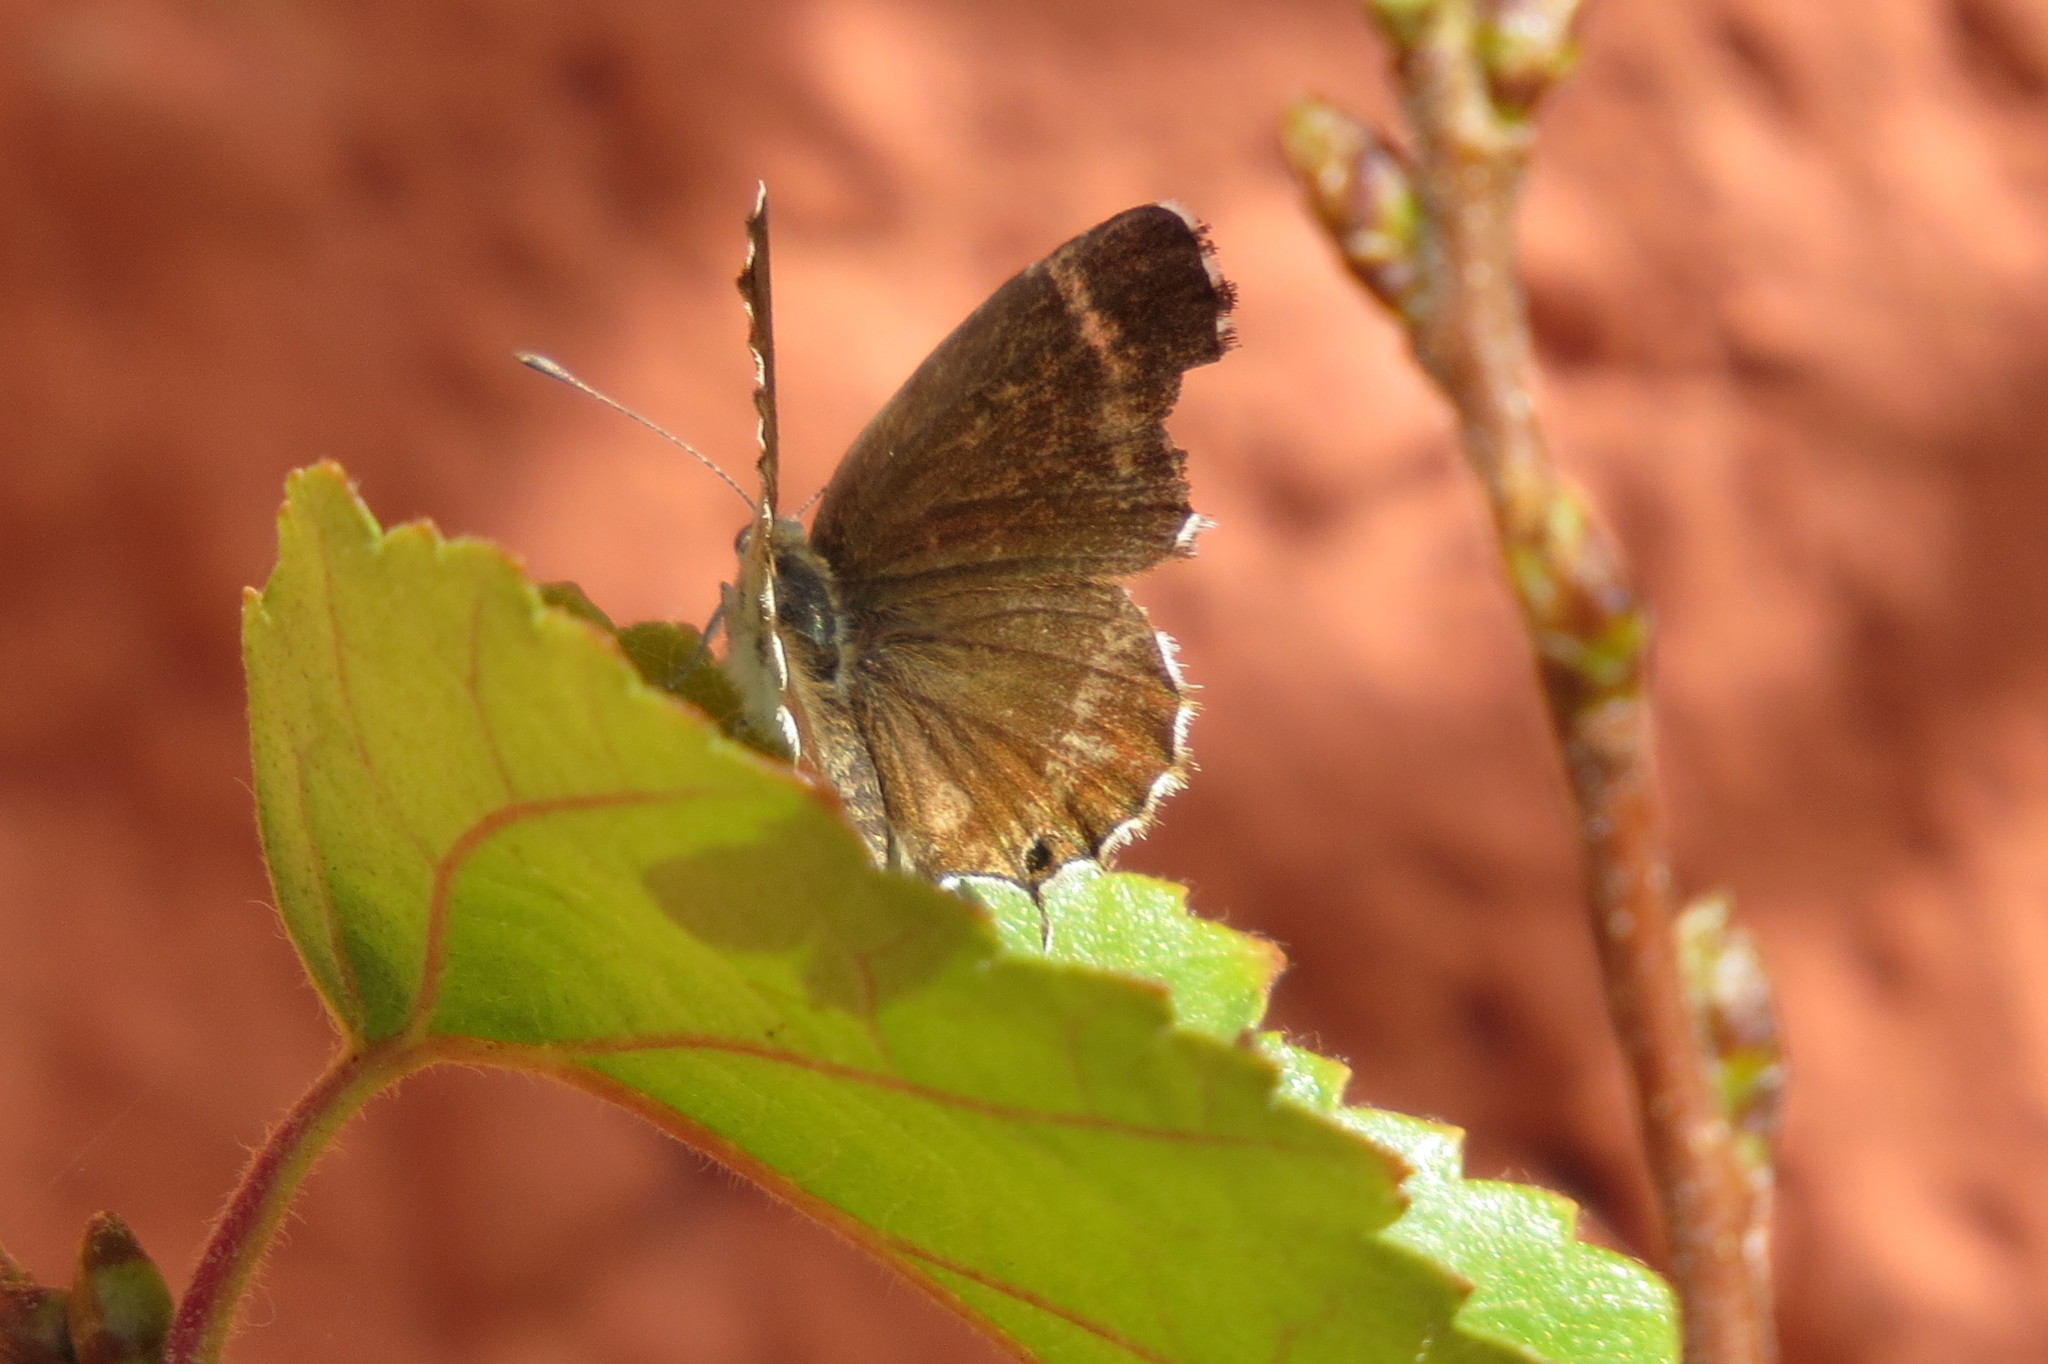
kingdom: Animalia
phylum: Arthropoda
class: Insecta
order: Lepidoptera
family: Lycaenidae
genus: Cacyreus
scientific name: Cacyreus marshalli
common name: Geranium bronze
